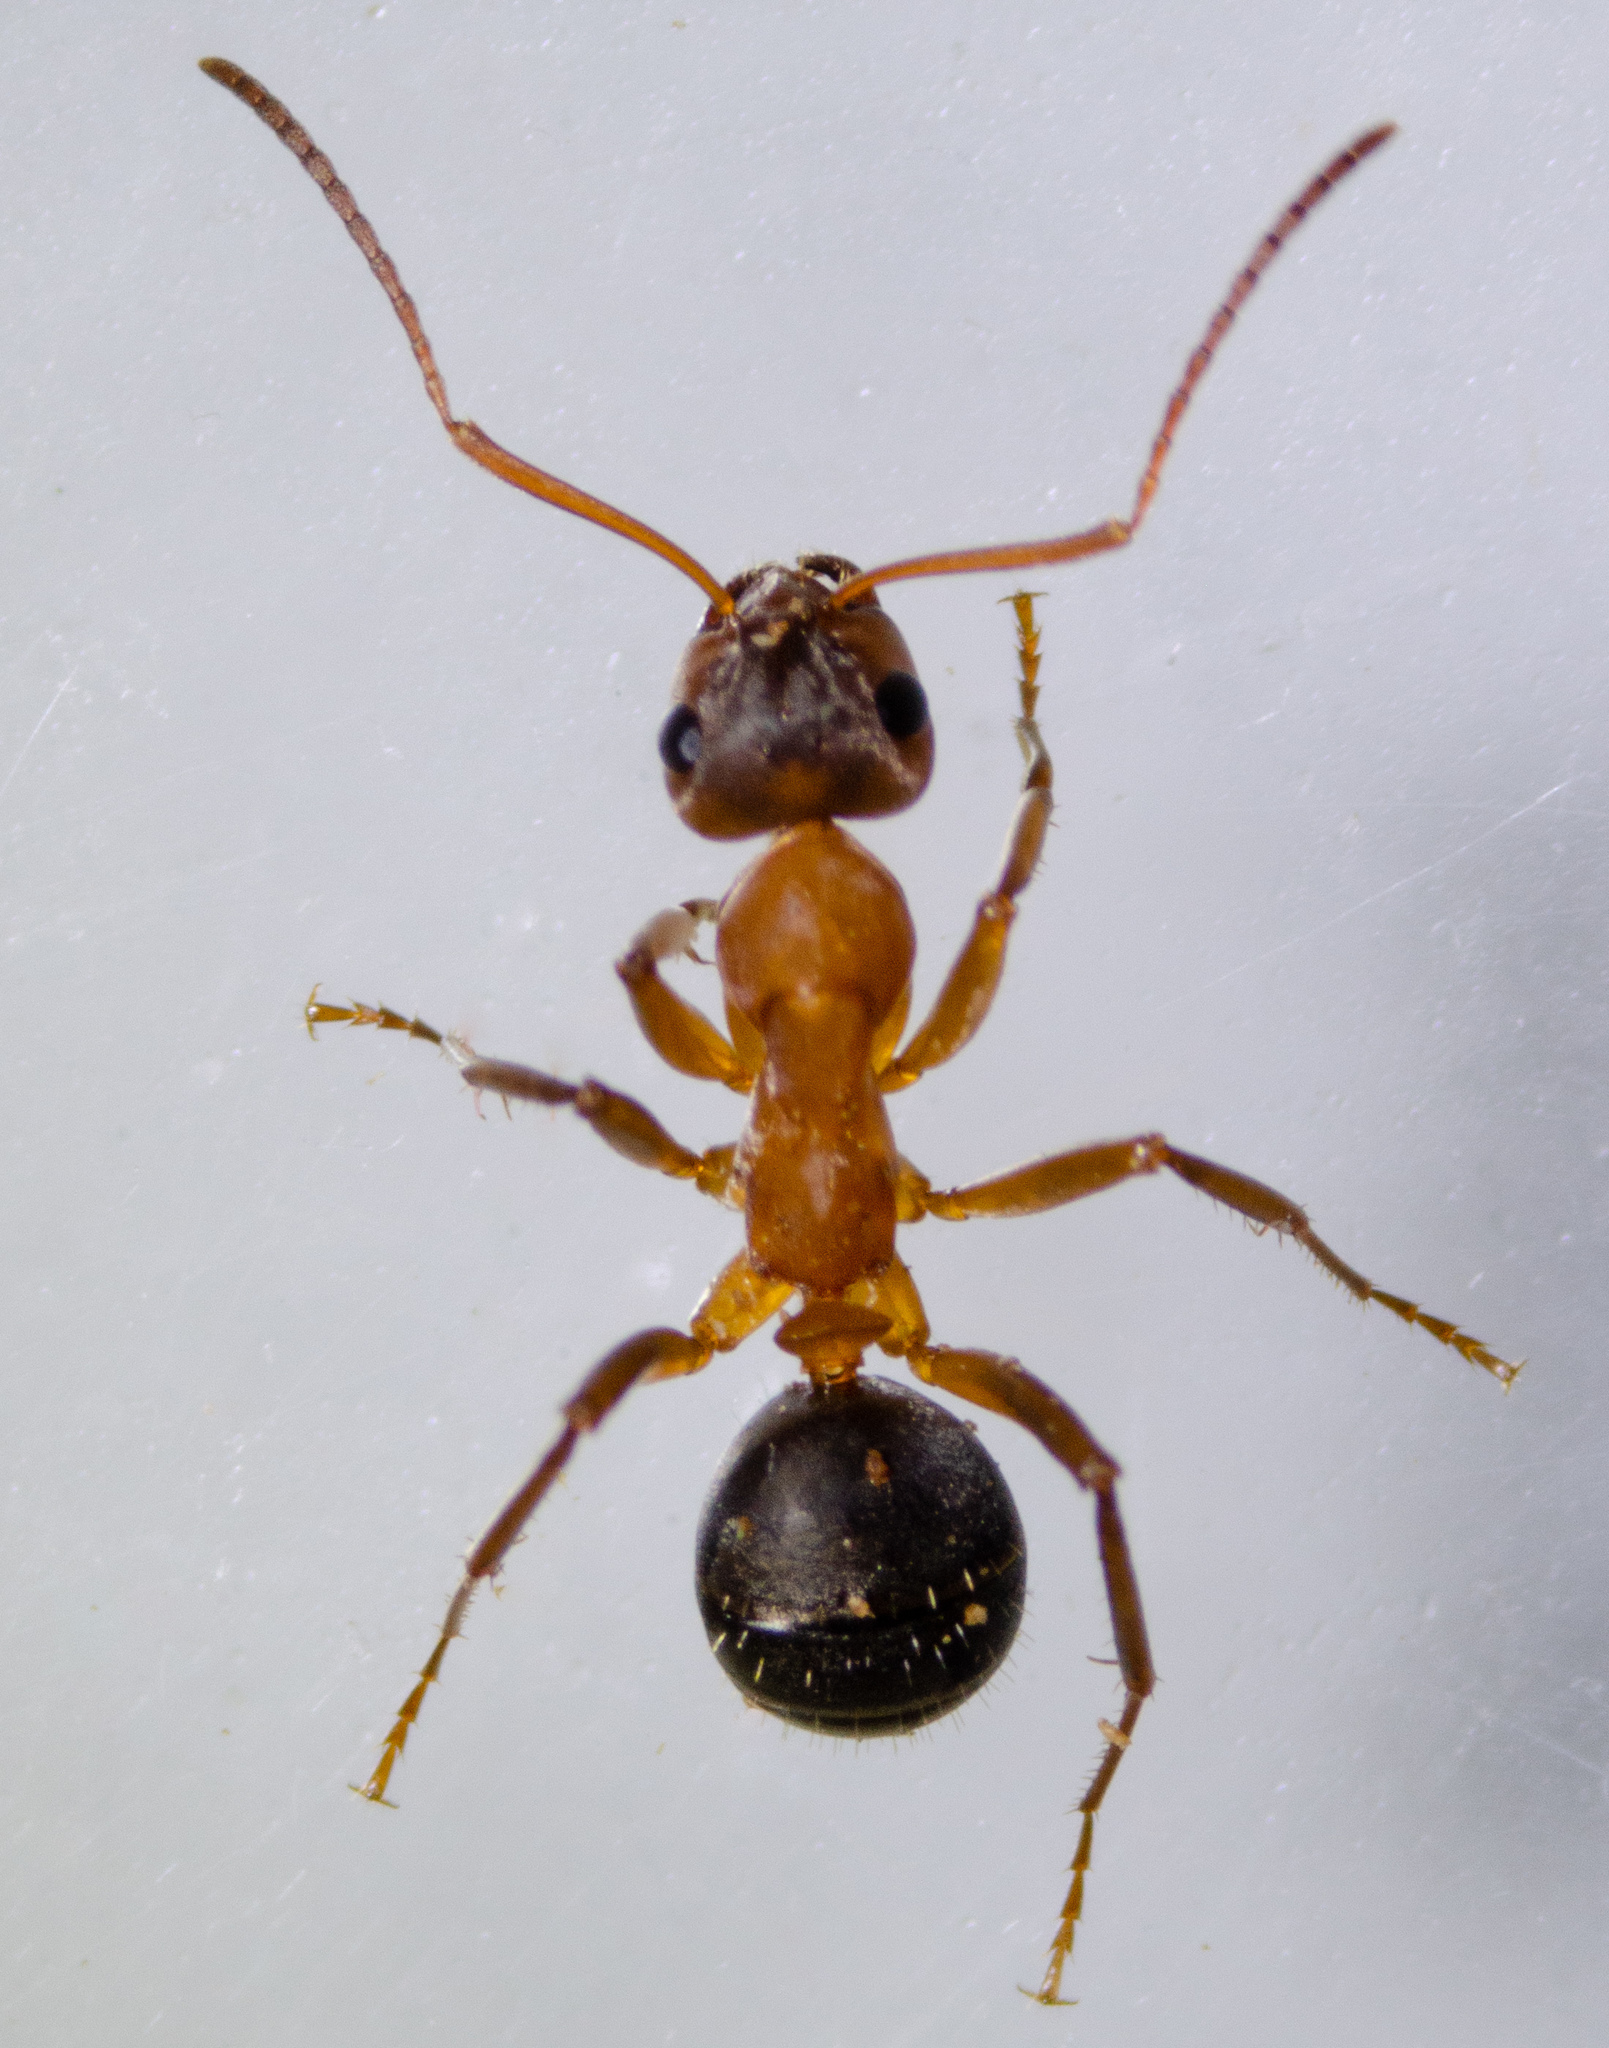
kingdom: Animalia
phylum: Arthropoda
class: Insecta
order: Hymenoptera
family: Formicidae
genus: Formica
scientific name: Formica pacifica
